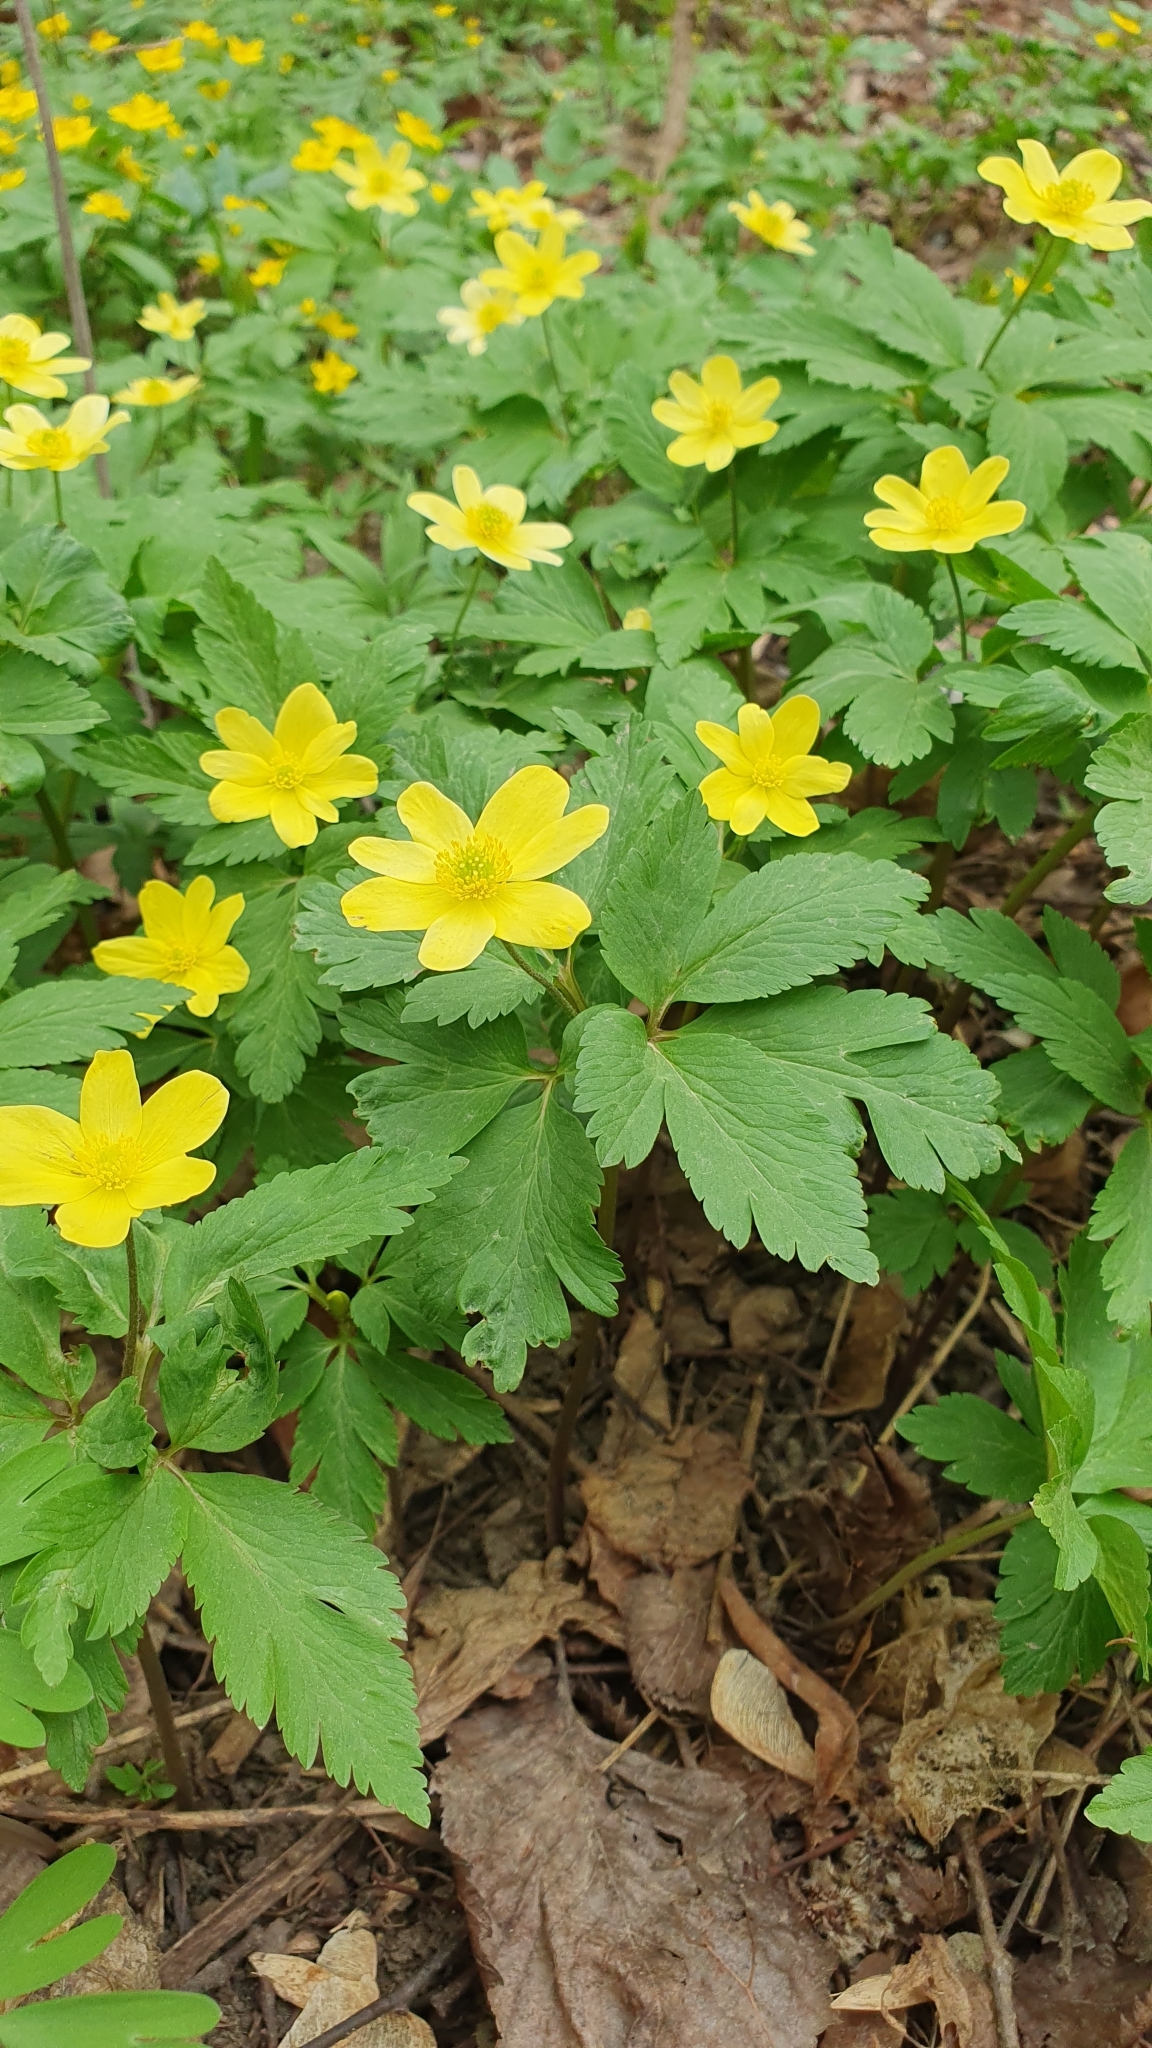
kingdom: Plantae
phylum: Tracheophyta
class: Magnoliopsida
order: Ranunculales
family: Ranunculaceae
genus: Anemone
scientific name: Anemone korzchinskyi
